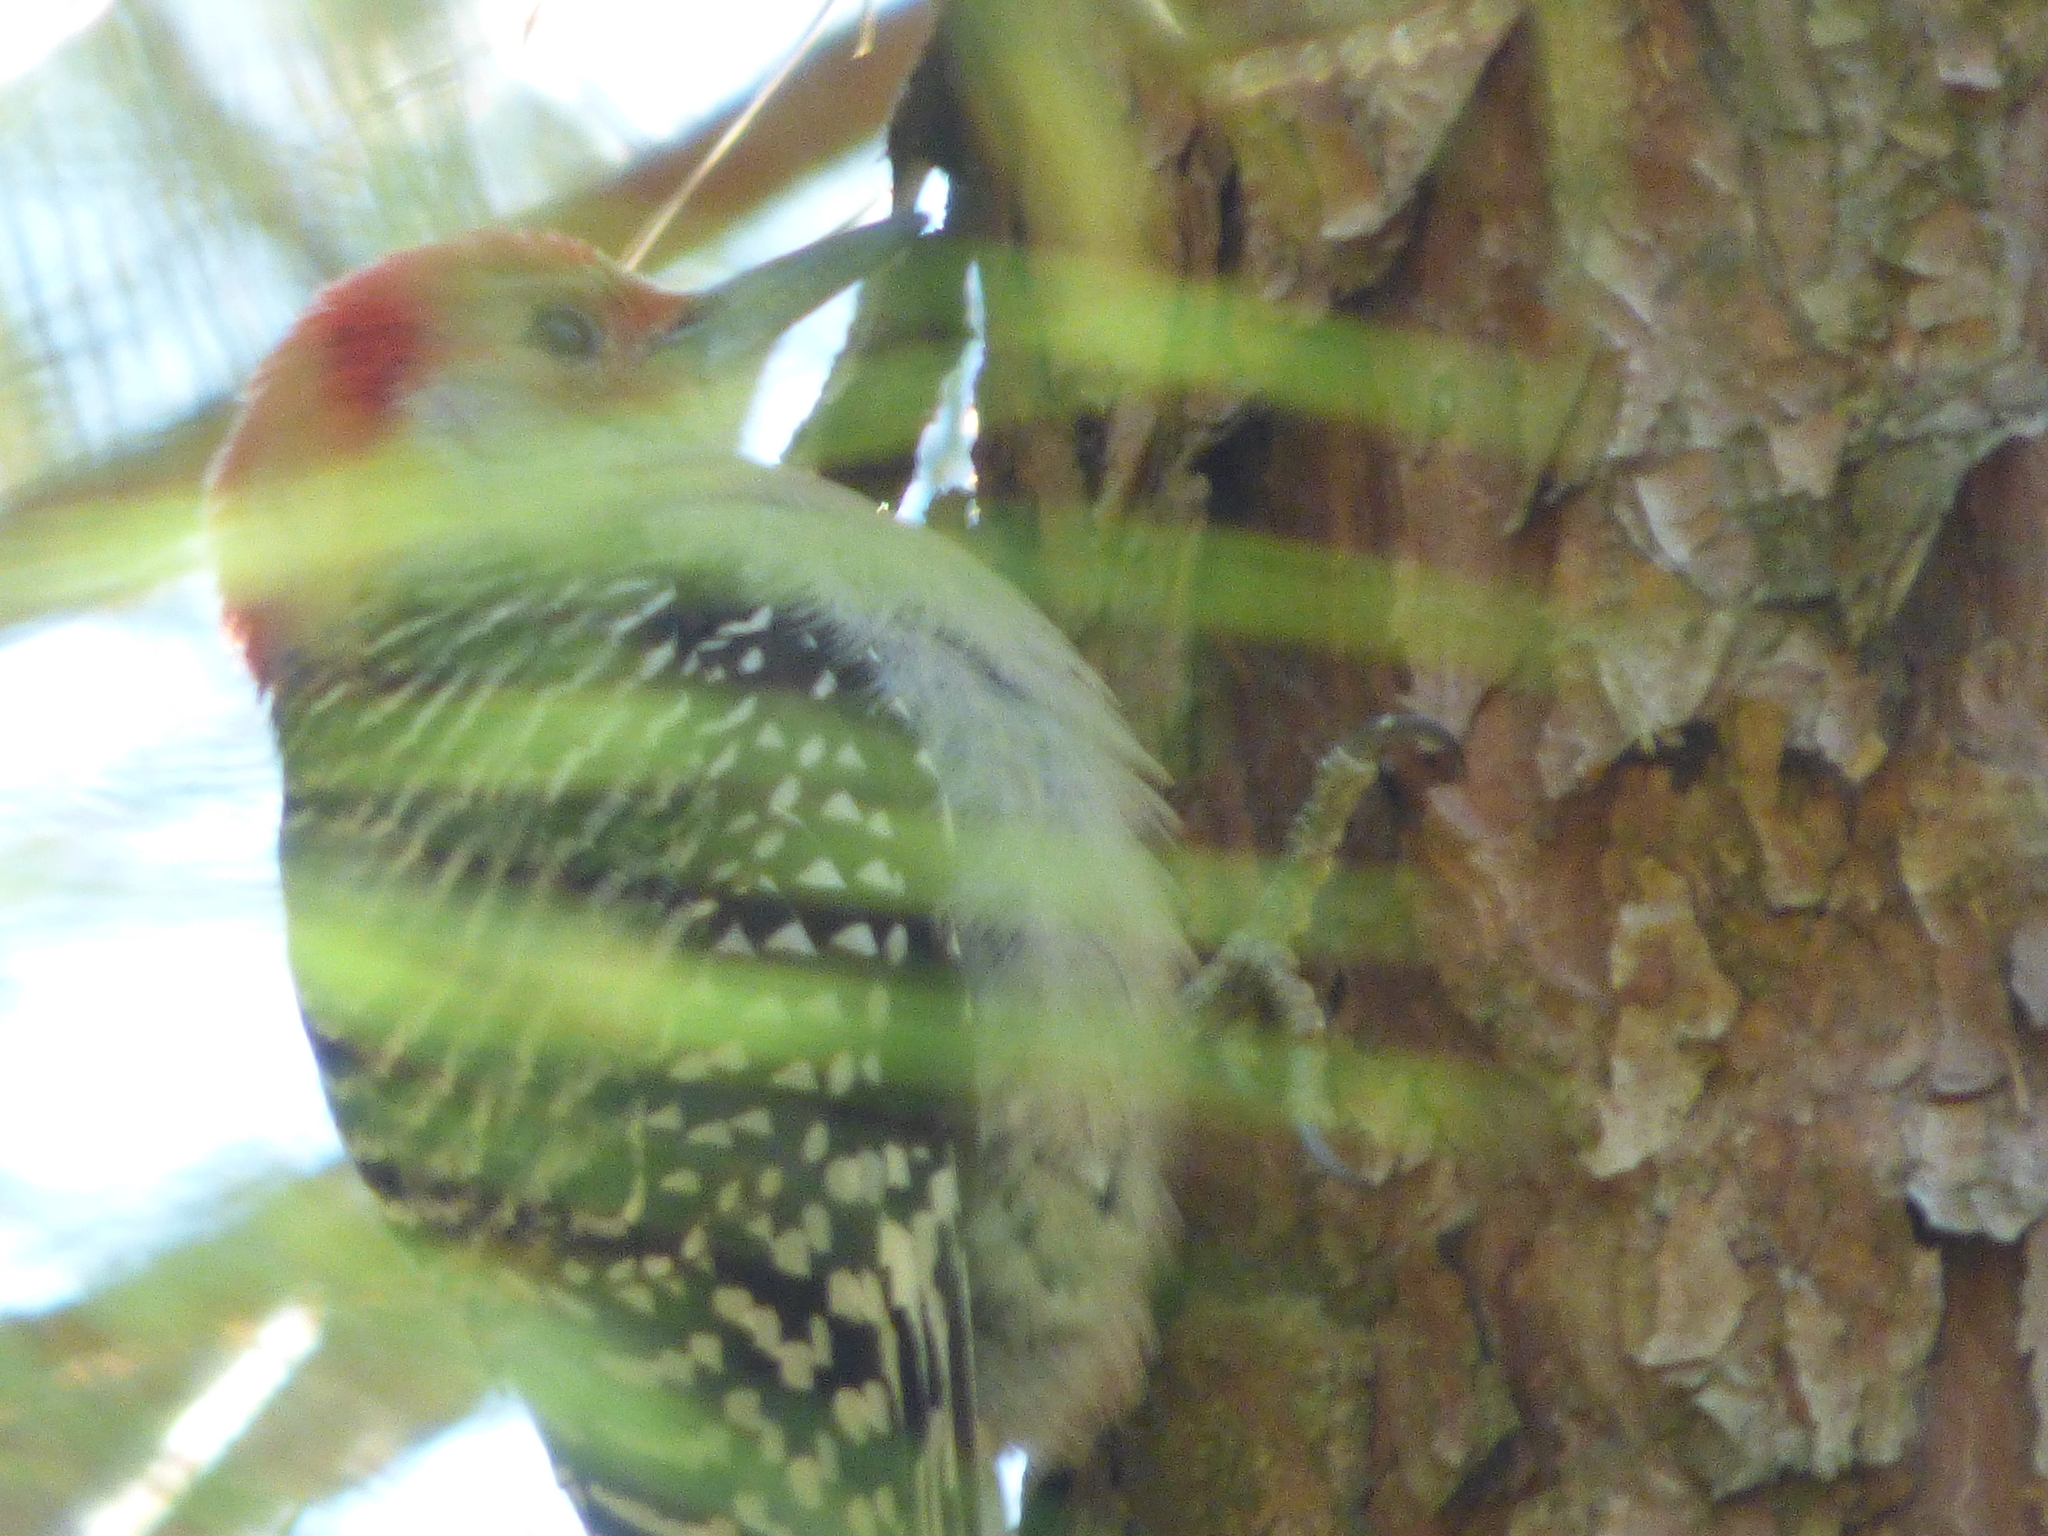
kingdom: Animalia
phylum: Chordata
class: Aves
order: Piciformes
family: Picidae
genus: Melanerpes
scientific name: Melanerpes carolinus
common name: Red-bellied woodpecker
